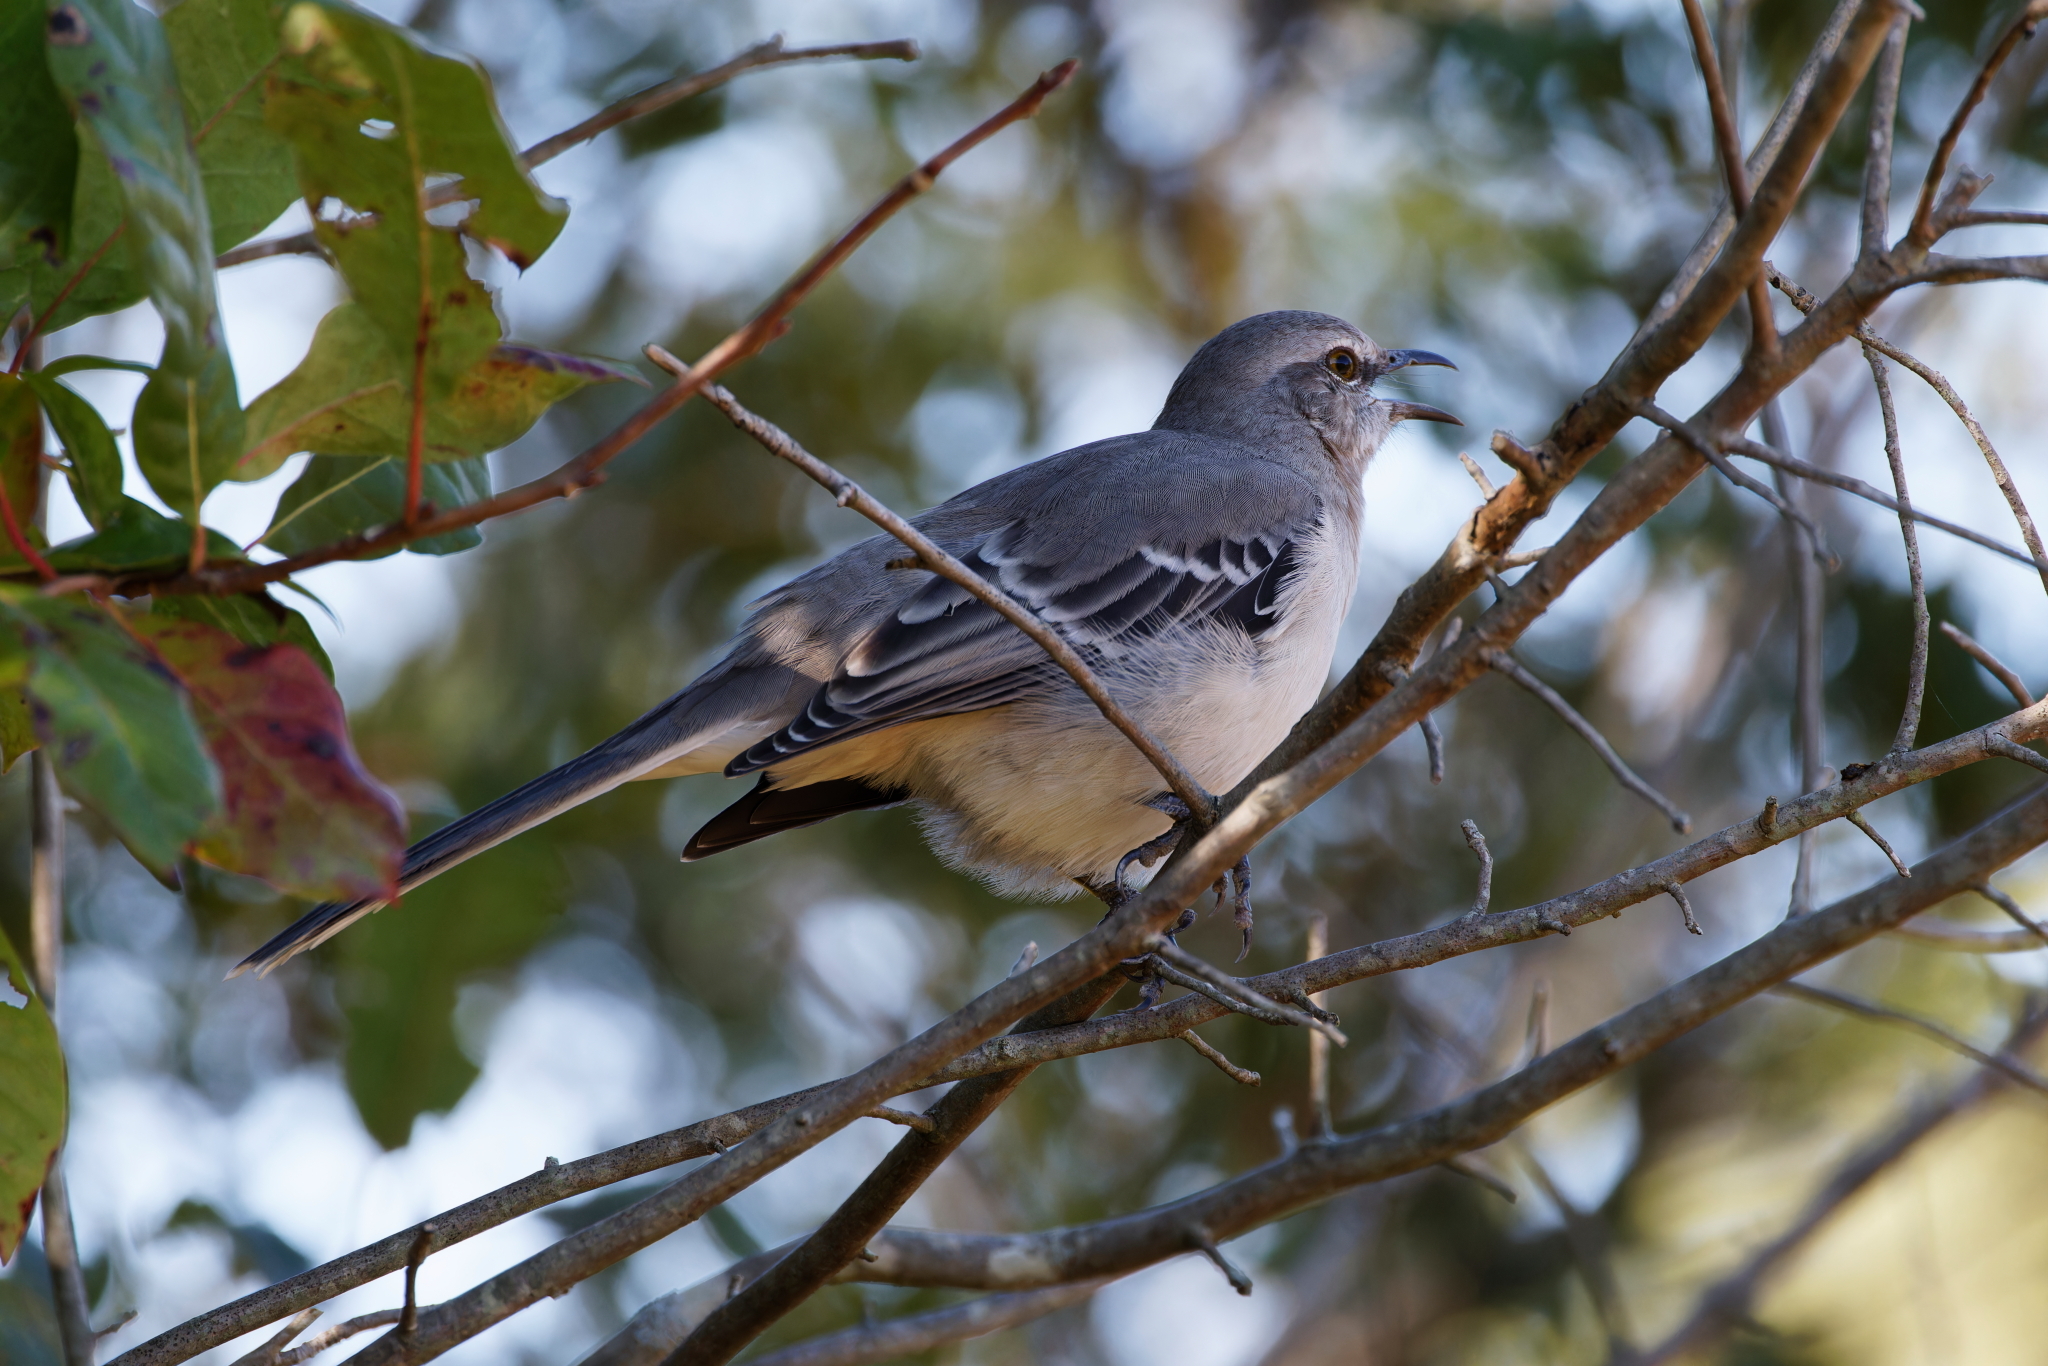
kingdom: Animalia
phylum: Chordata
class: Aves
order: Passeriformes
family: Mimidae
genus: Mimus
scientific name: Mimus polyglottos
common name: Northern mockingbird
